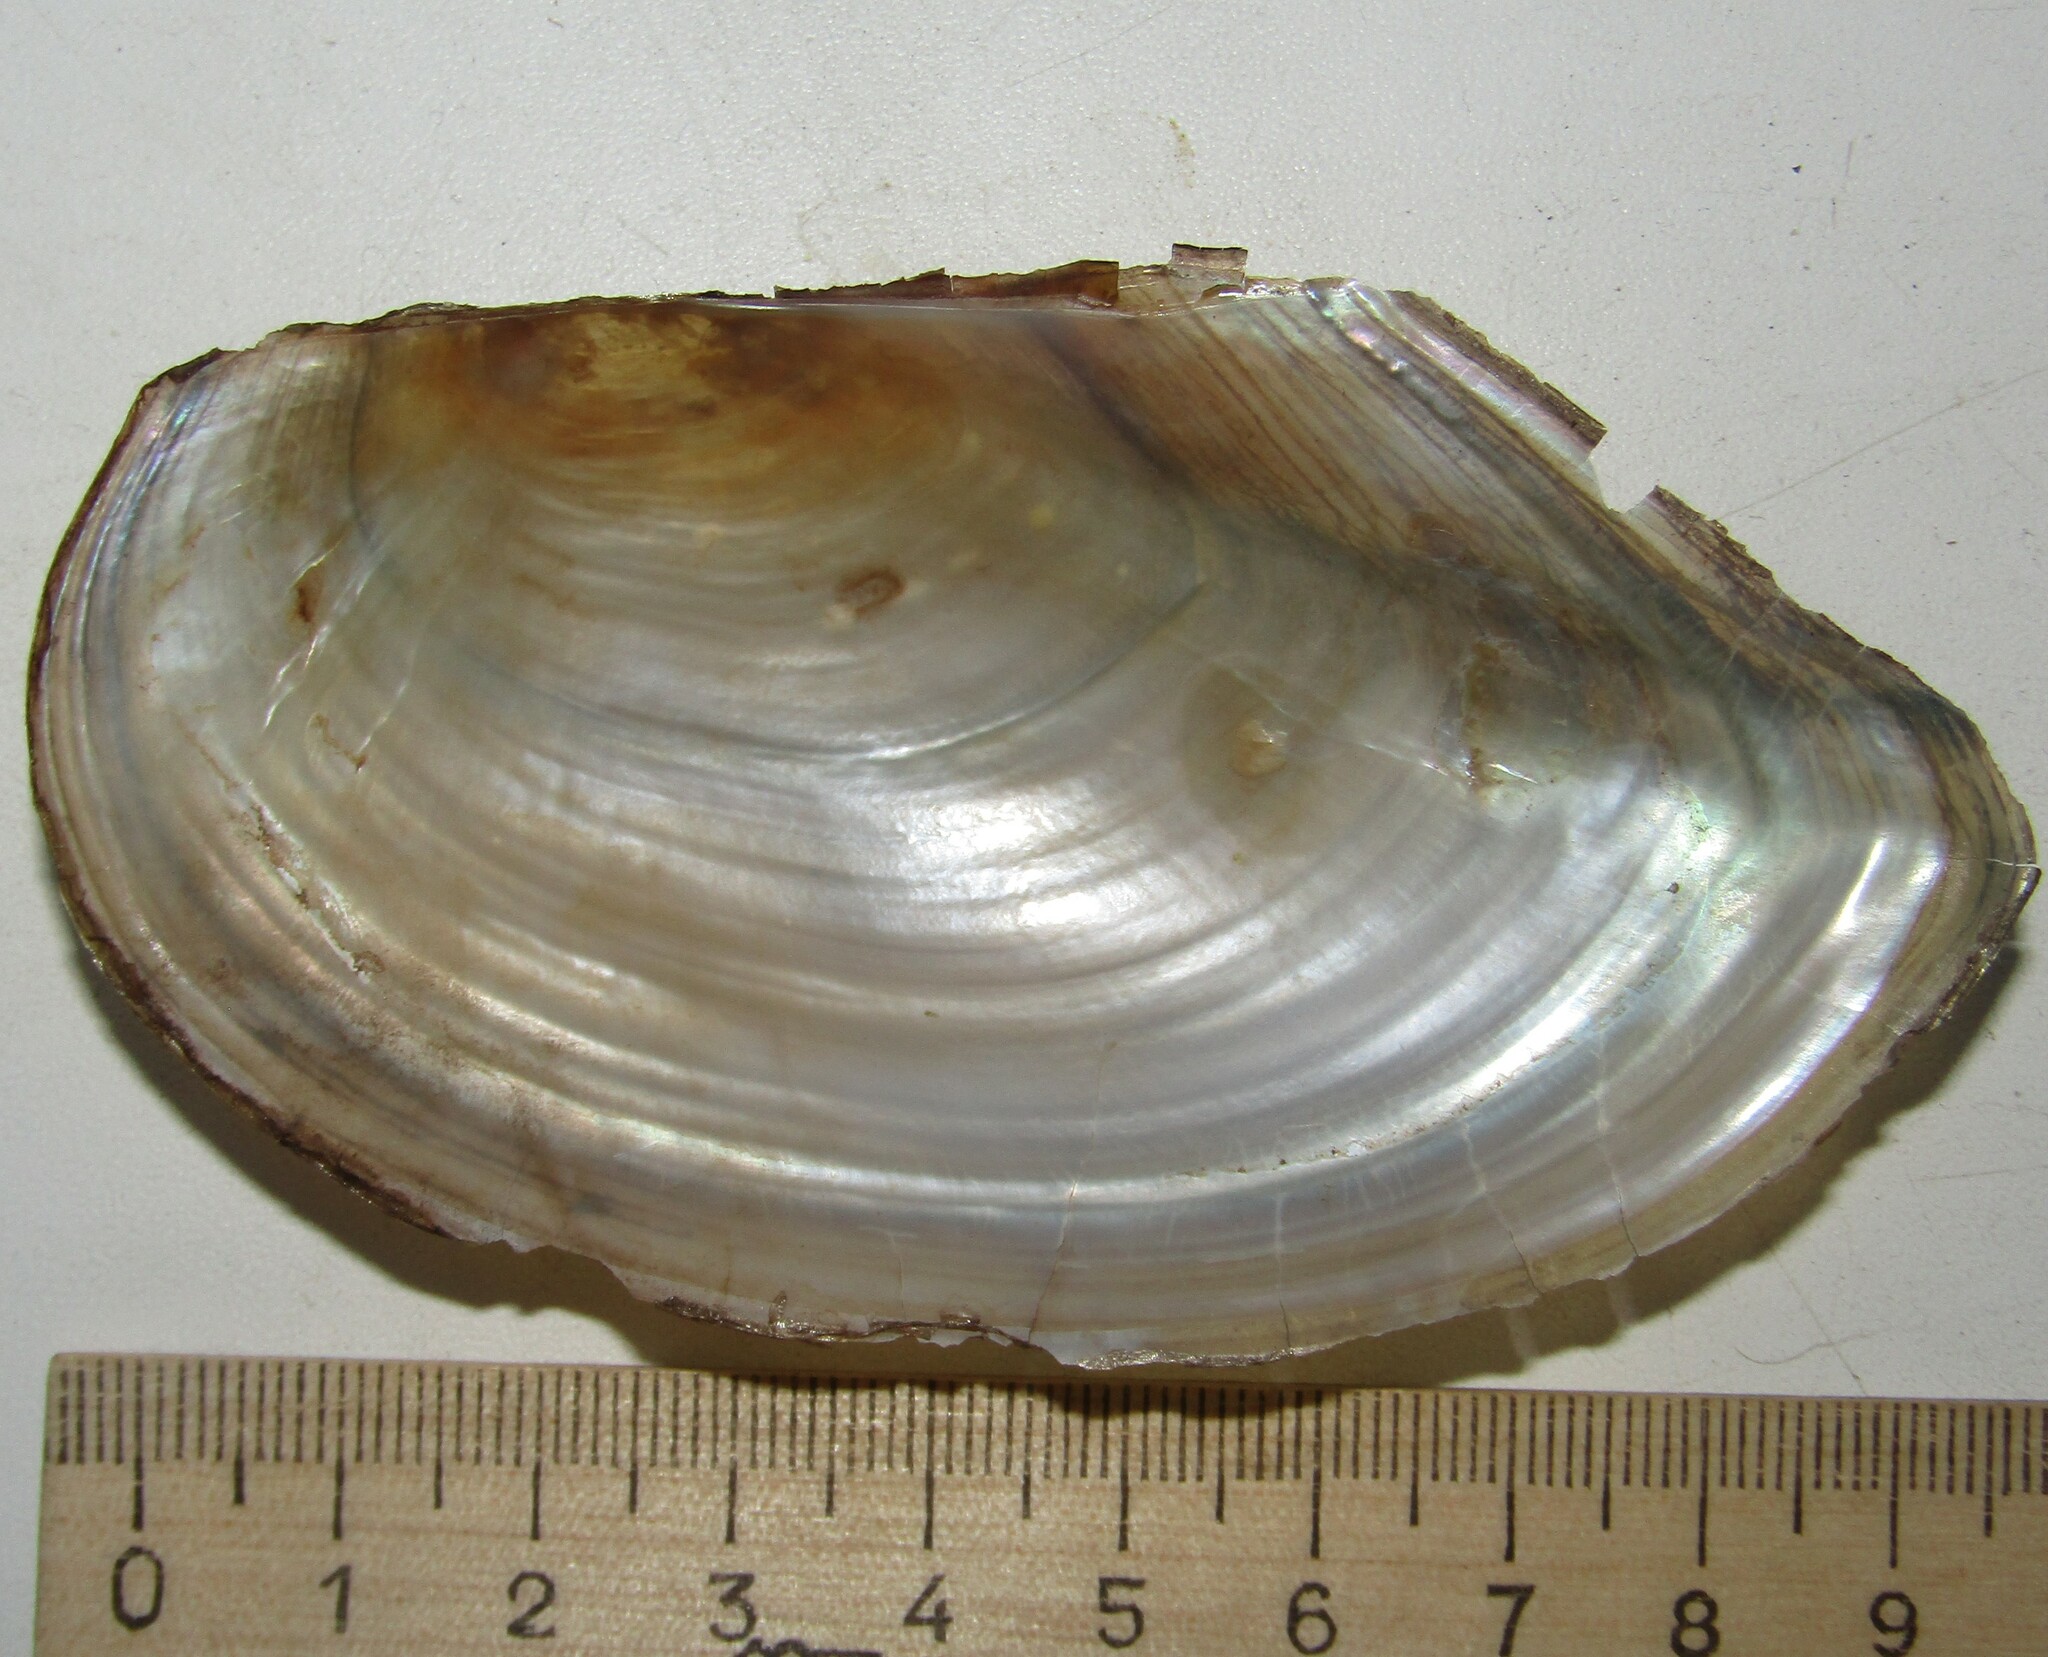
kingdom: Animalia
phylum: Mollusca
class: Bivalvia
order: Unionida
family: Unionidae
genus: Anodonta
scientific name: Anodonta cygnea
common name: Swan mussel
